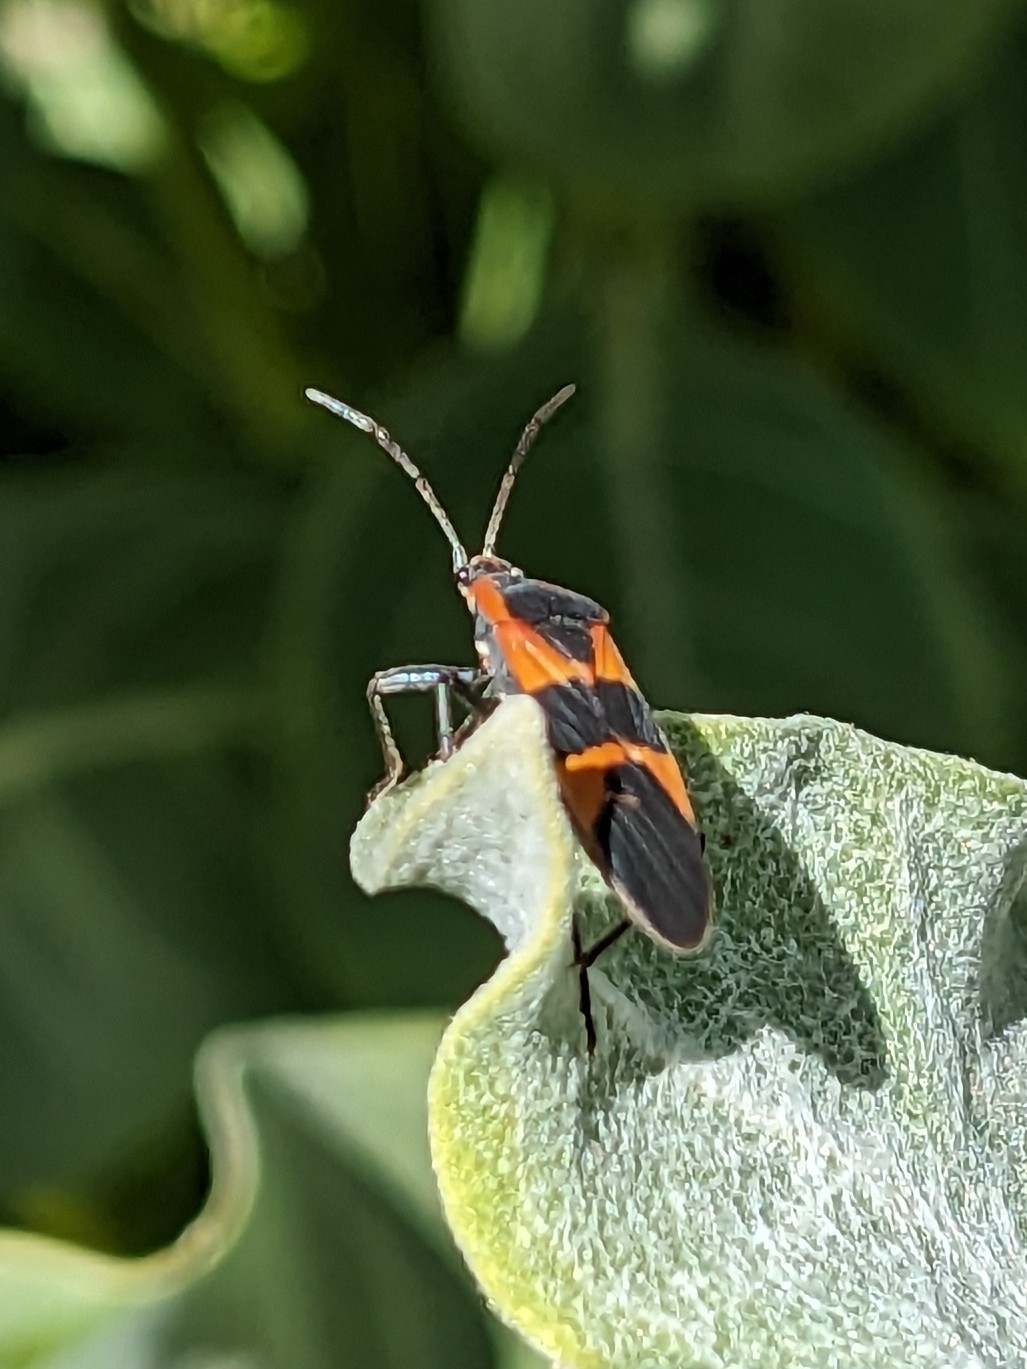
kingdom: Animalia
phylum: Arthropoda
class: Insecta
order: Hemiptera
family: Lygaeidae
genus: Oncopeltus
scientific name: Oncopeltus fasciatus
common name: Large milkweed bug
